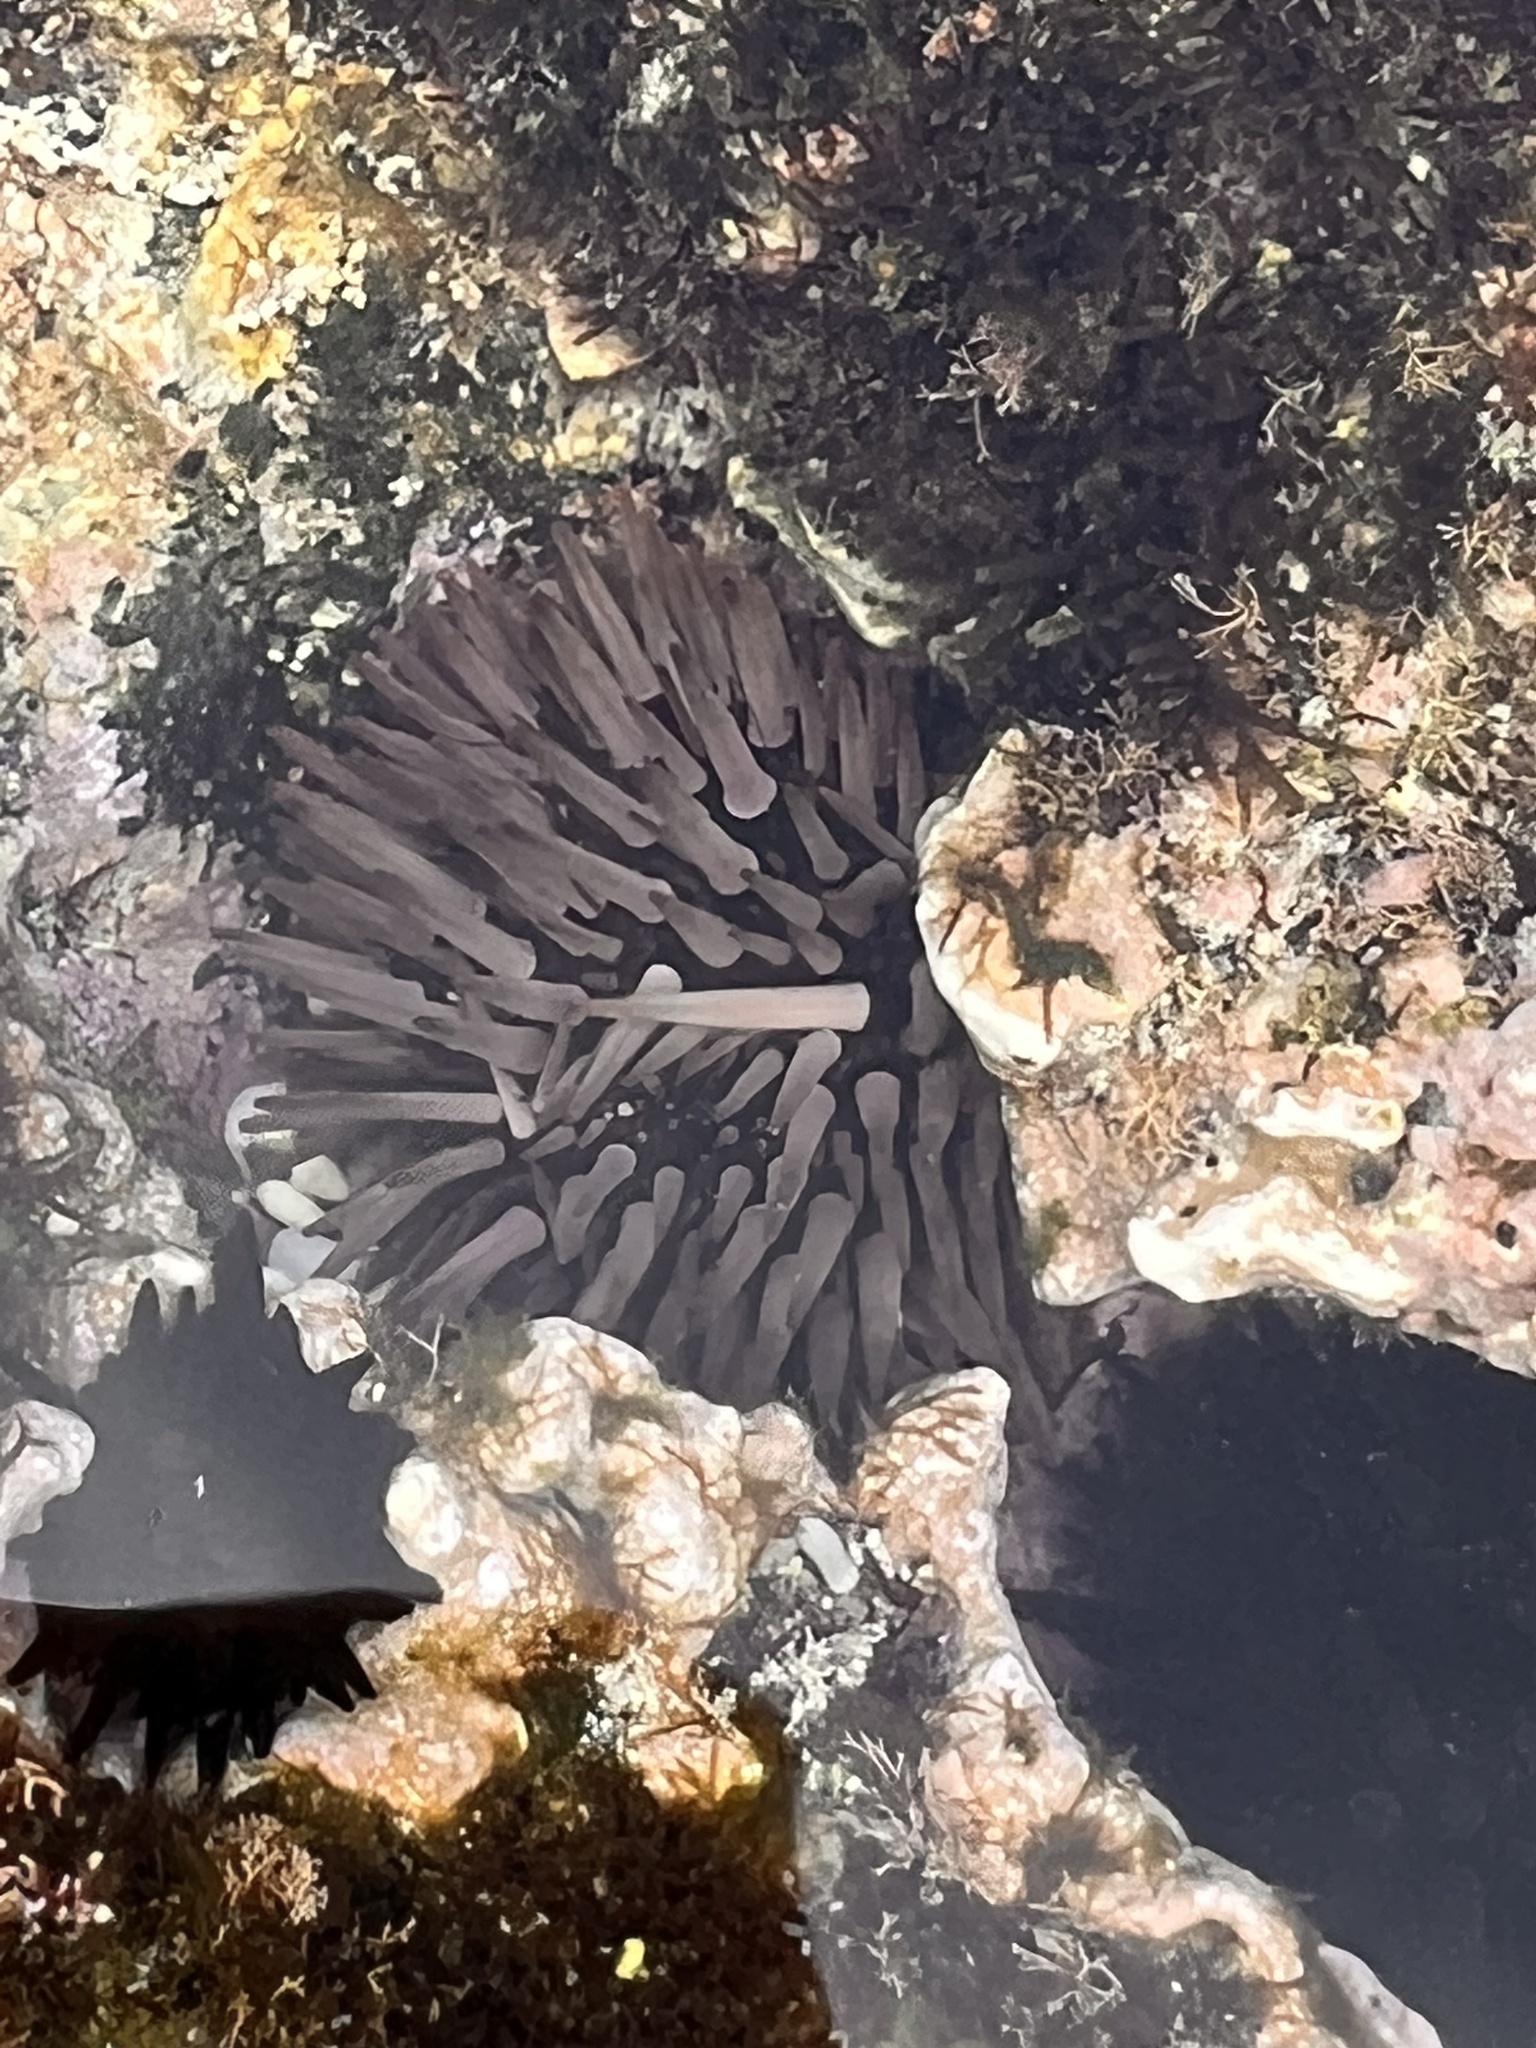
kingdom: Animalia
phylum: Echinodermata
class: Echinoidea
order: Camarodonta
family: Echinometridae
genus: Echinometra
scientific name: Echinometra mathaei
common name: Rock-boring urchin
